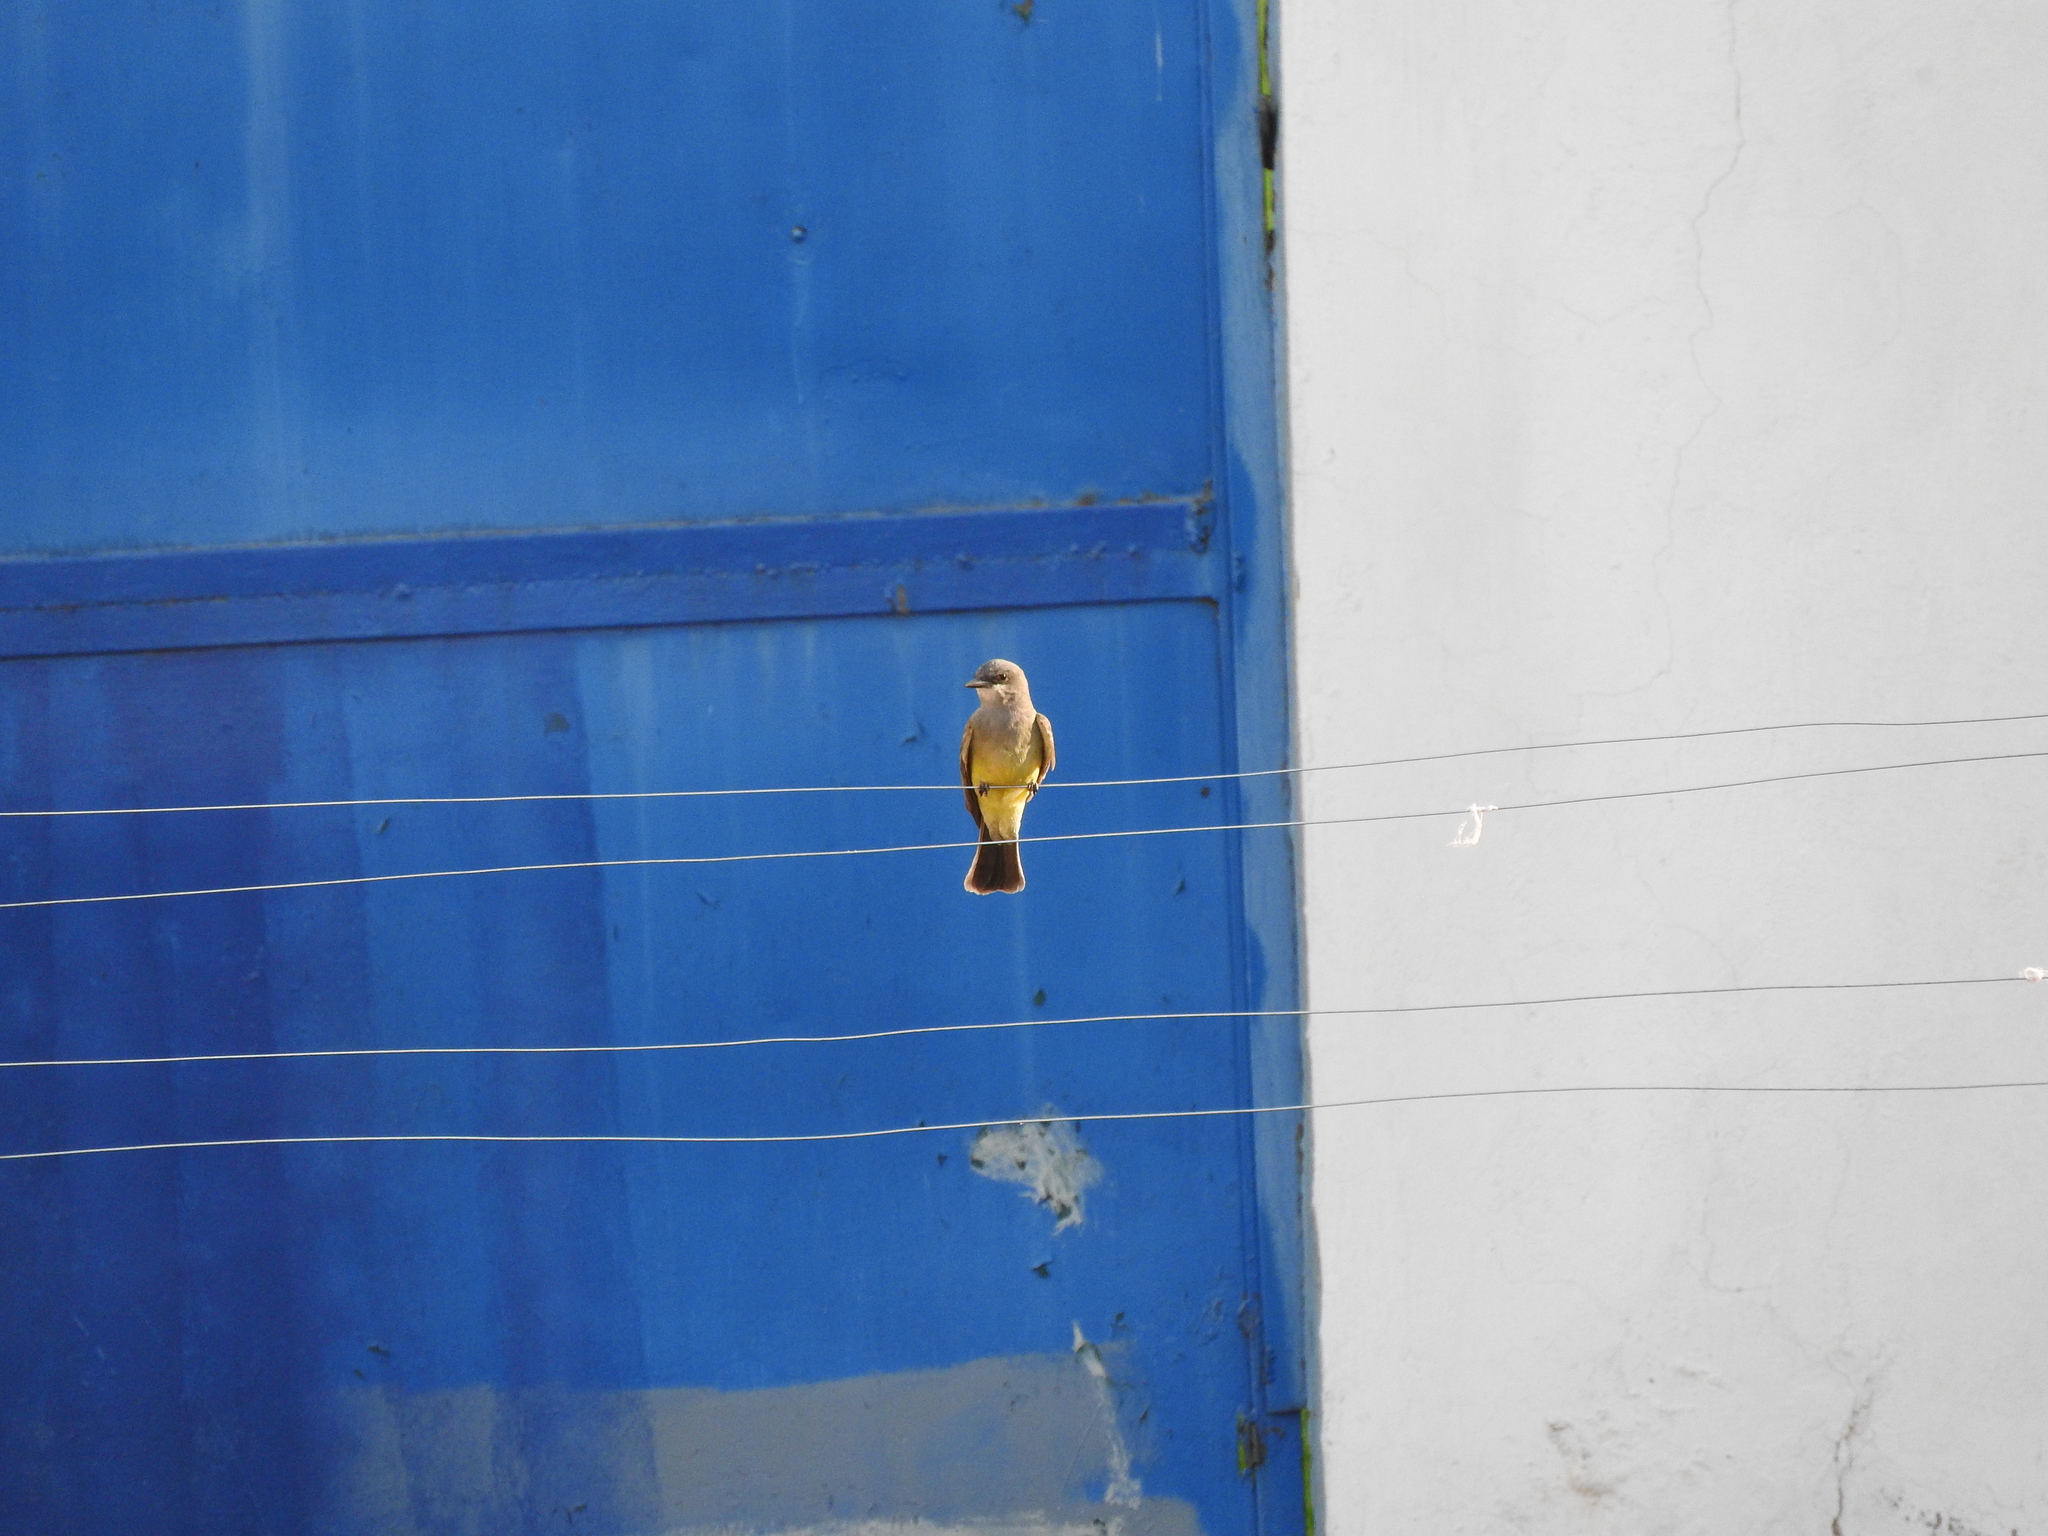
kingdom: Animalia
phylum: Chordata
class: Aves
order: Passeriformes
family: Tyrannidae
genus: Tyrannus
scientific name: Tyrannus vociferans
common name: Cassin's kingbird
